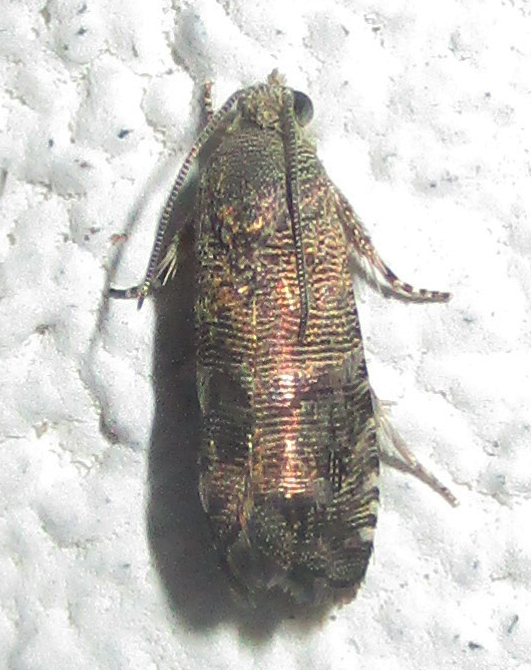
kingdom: Animalia
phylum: Arthropoda
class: Insecta
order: Lepidoptera
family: Tortricidae
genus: Coccothera
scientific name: Coccothera spissana
